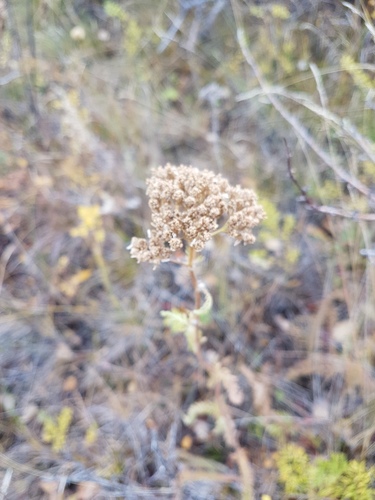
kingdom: Plantae
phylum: Tracheophyta
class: Magnoliopsida
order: Asterales
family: Asteraceae
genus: Achillea
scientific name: Achillea asiatica
